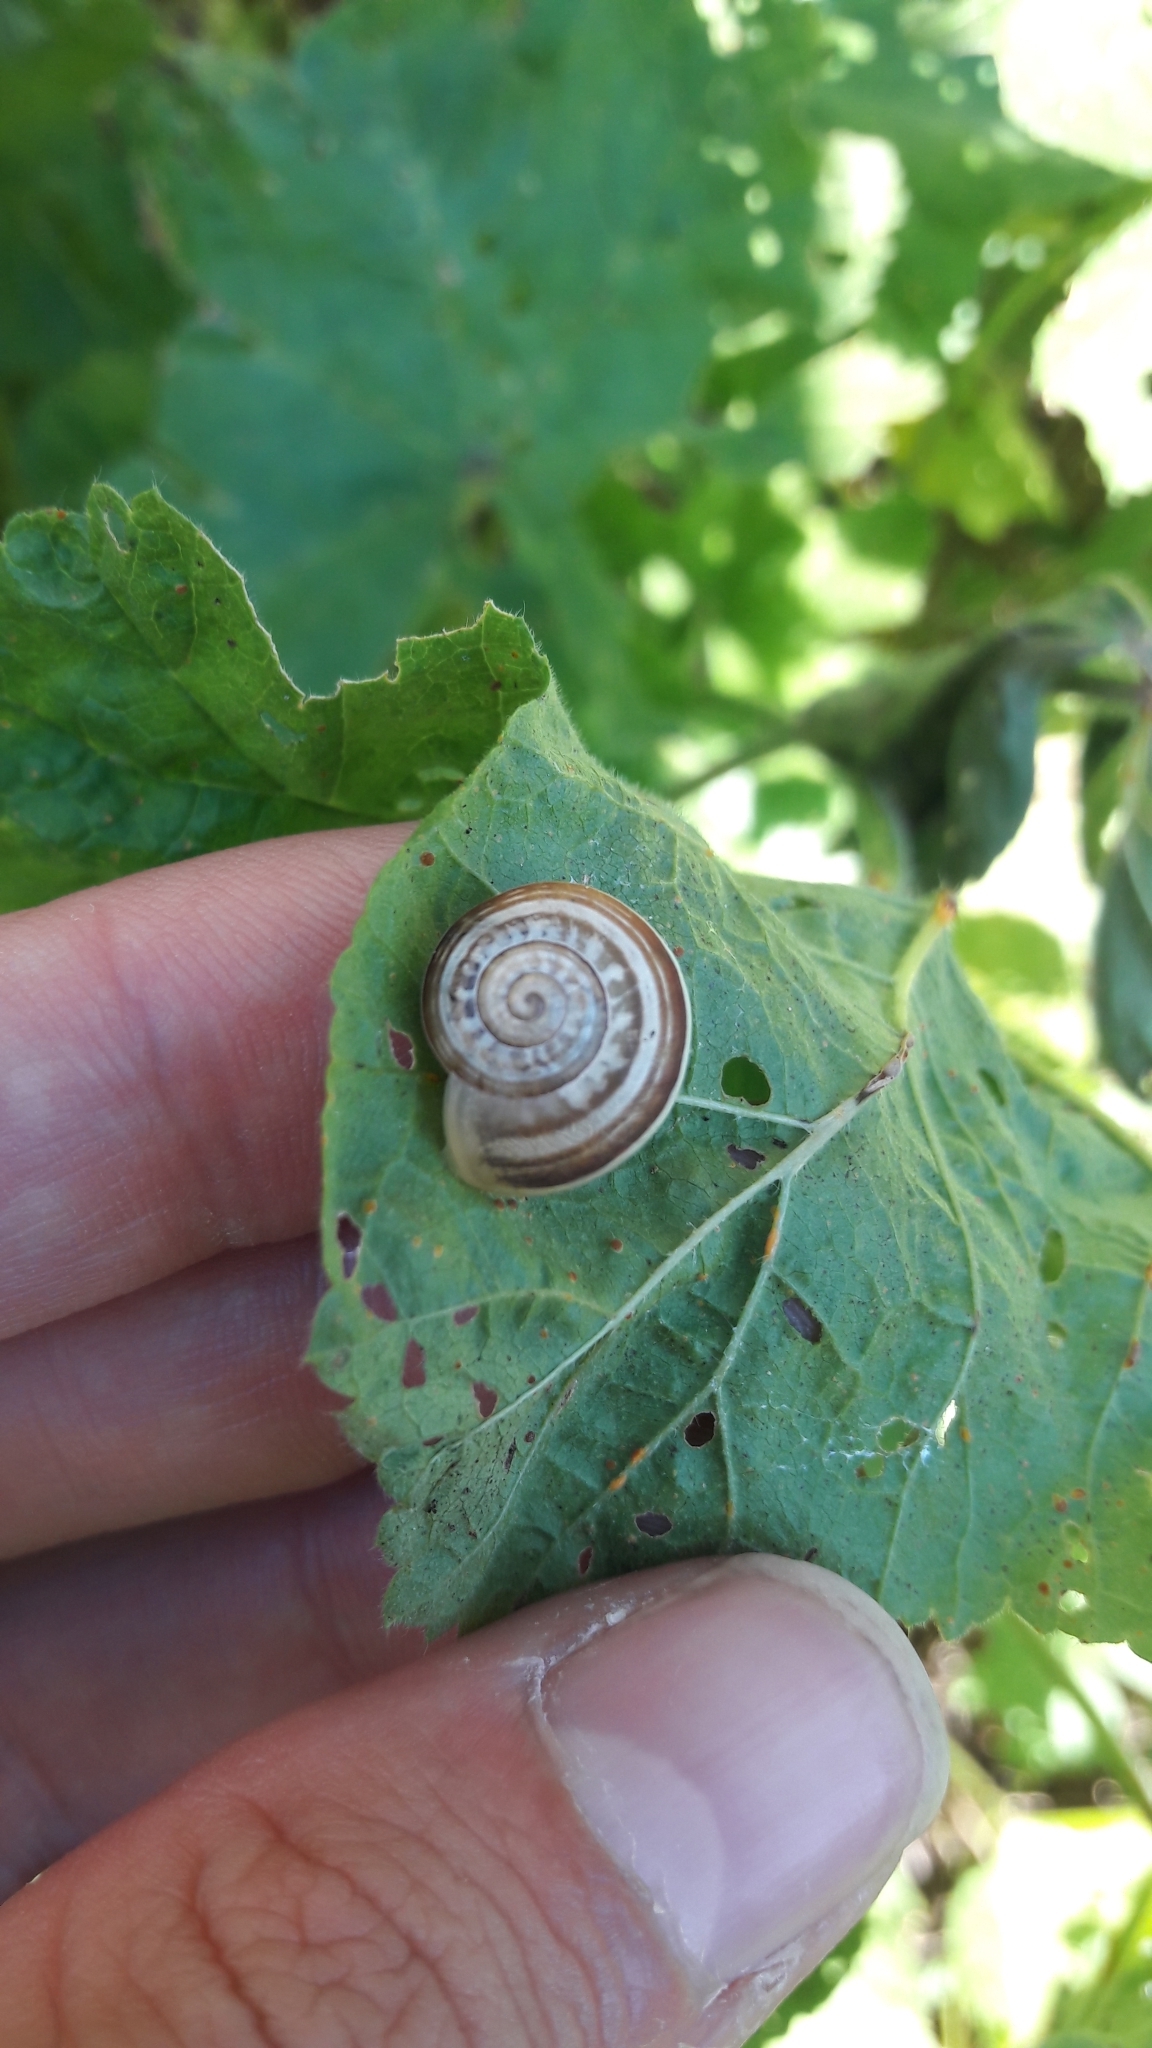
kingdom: Animalia
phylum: Mollusca
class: Gastropoda
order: Stylommatophora
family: Helicidae
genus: Eobania
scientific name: Eobania vermiculata
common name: Chocolateband snail
